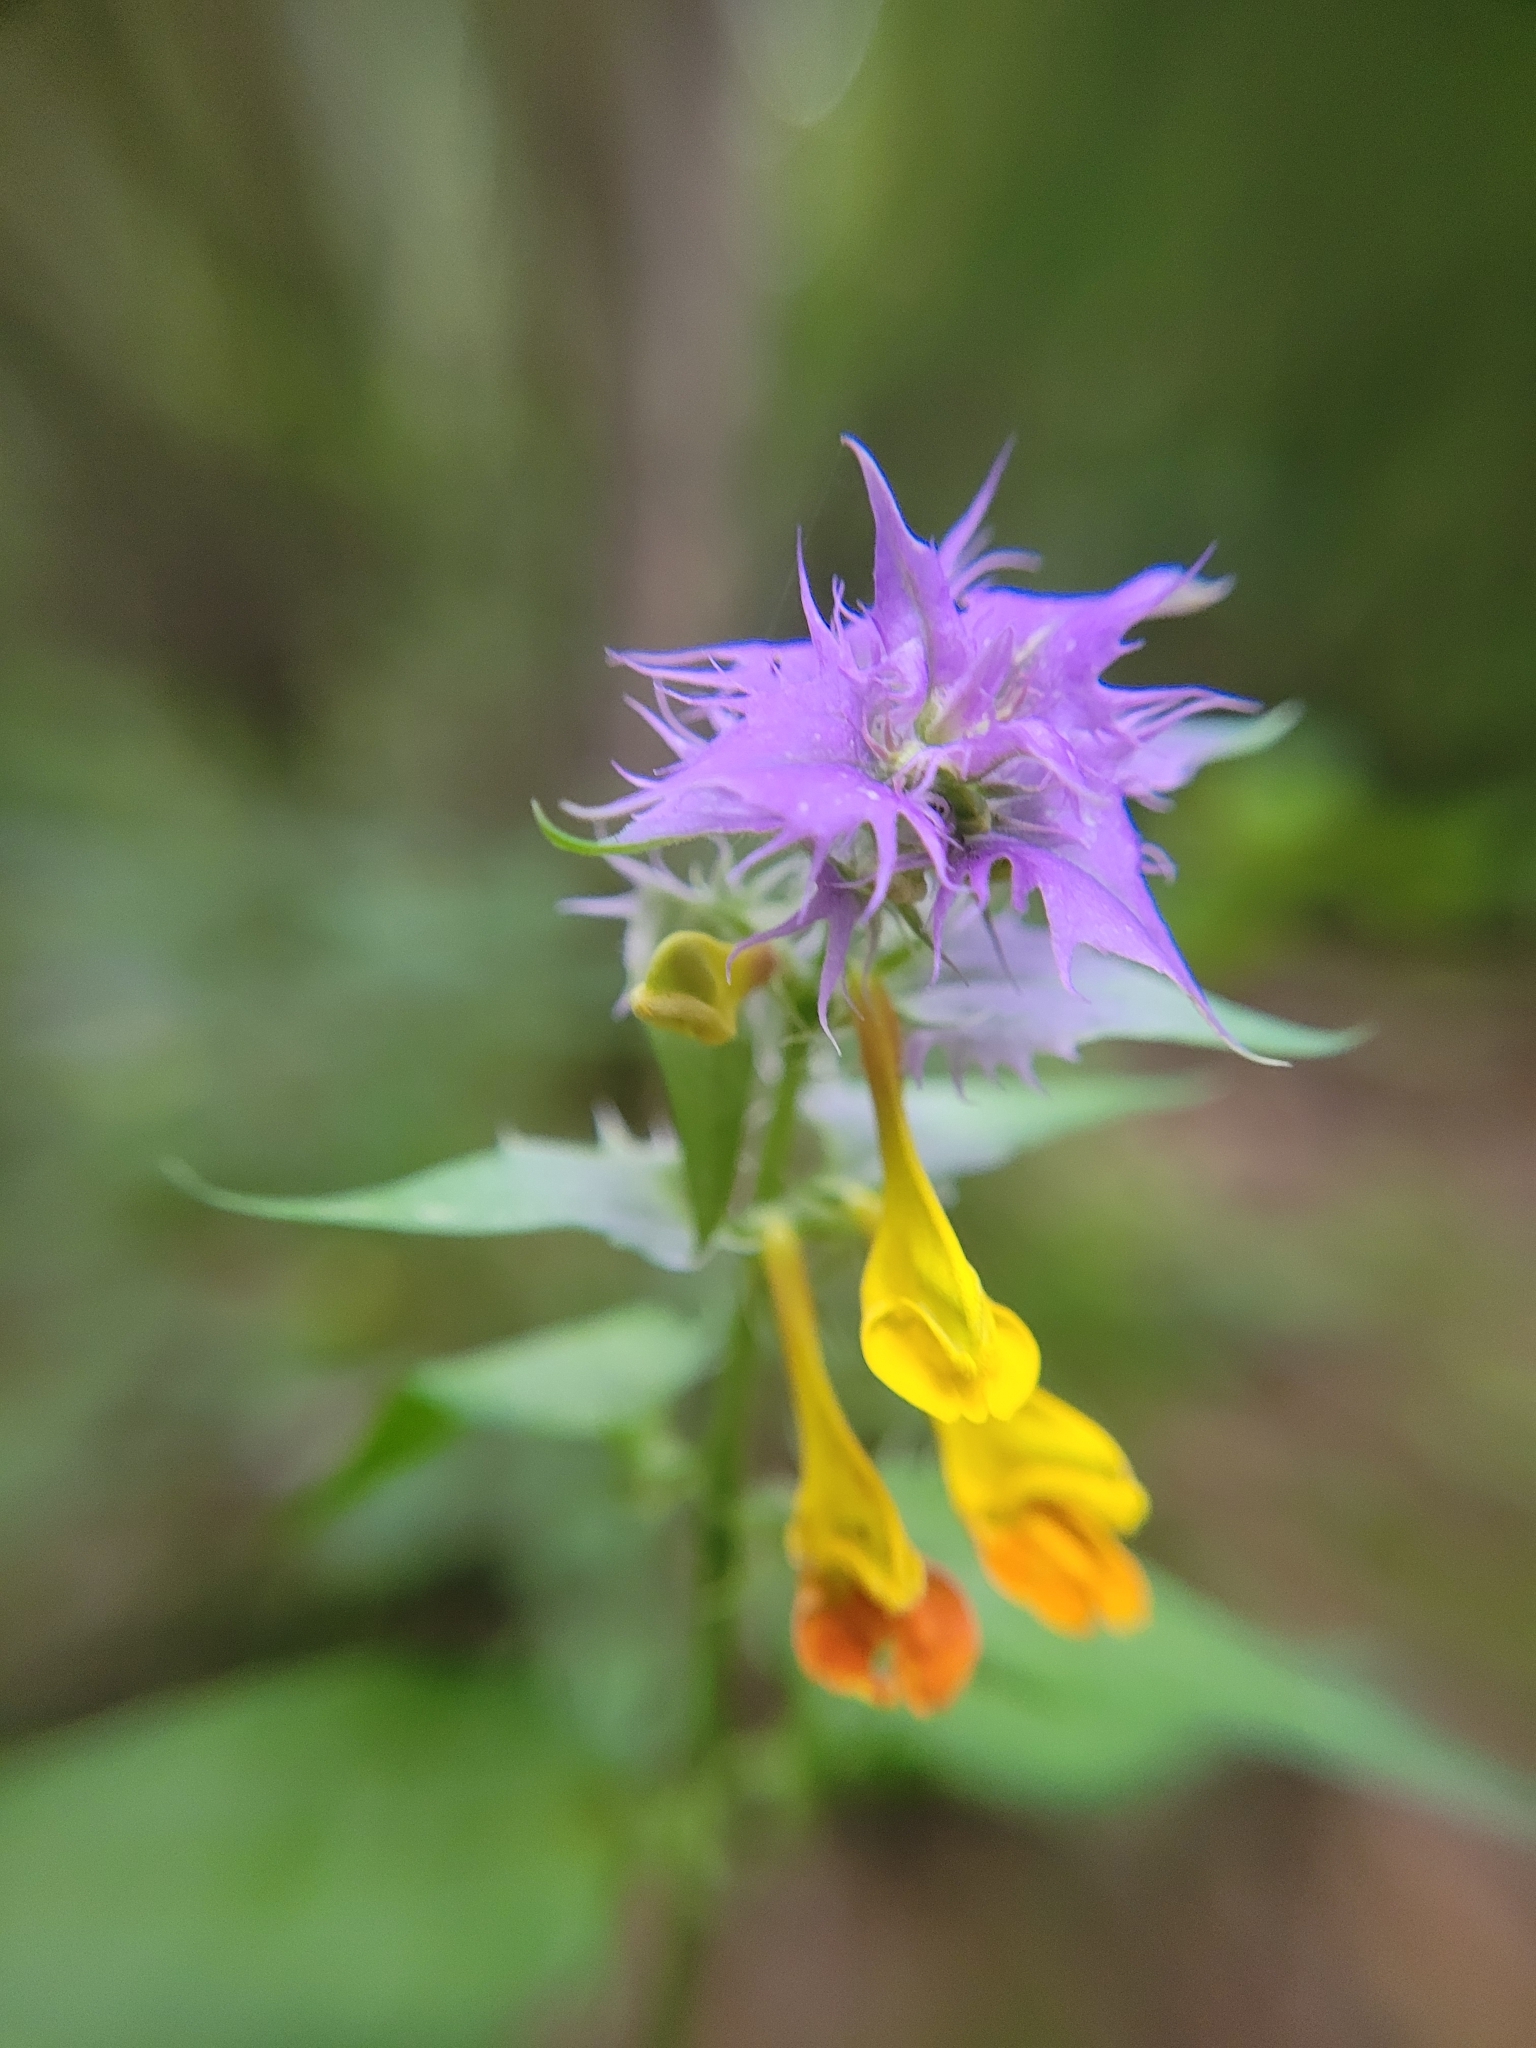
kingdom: Plantae
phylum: Tracheophyta
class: Magnoliopsida
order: Lamiales
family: Orobanchaceae
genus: Melampyrum
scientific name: Melampyrum nemorosum
